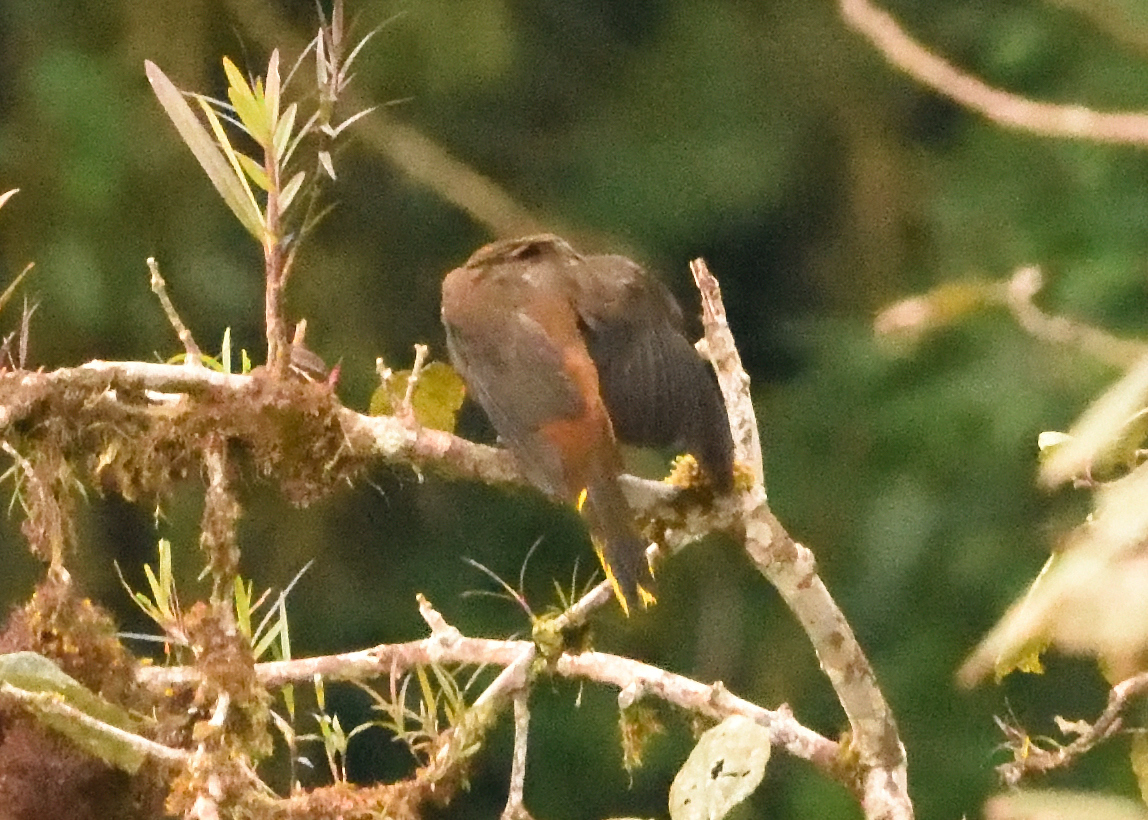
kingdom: Animalia
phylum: Chordata
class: Aves
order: Passeriformes
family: Icteridae
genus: Psarocolius
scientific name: Psarocolius angustifrons
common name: Russet-backed oropendola
